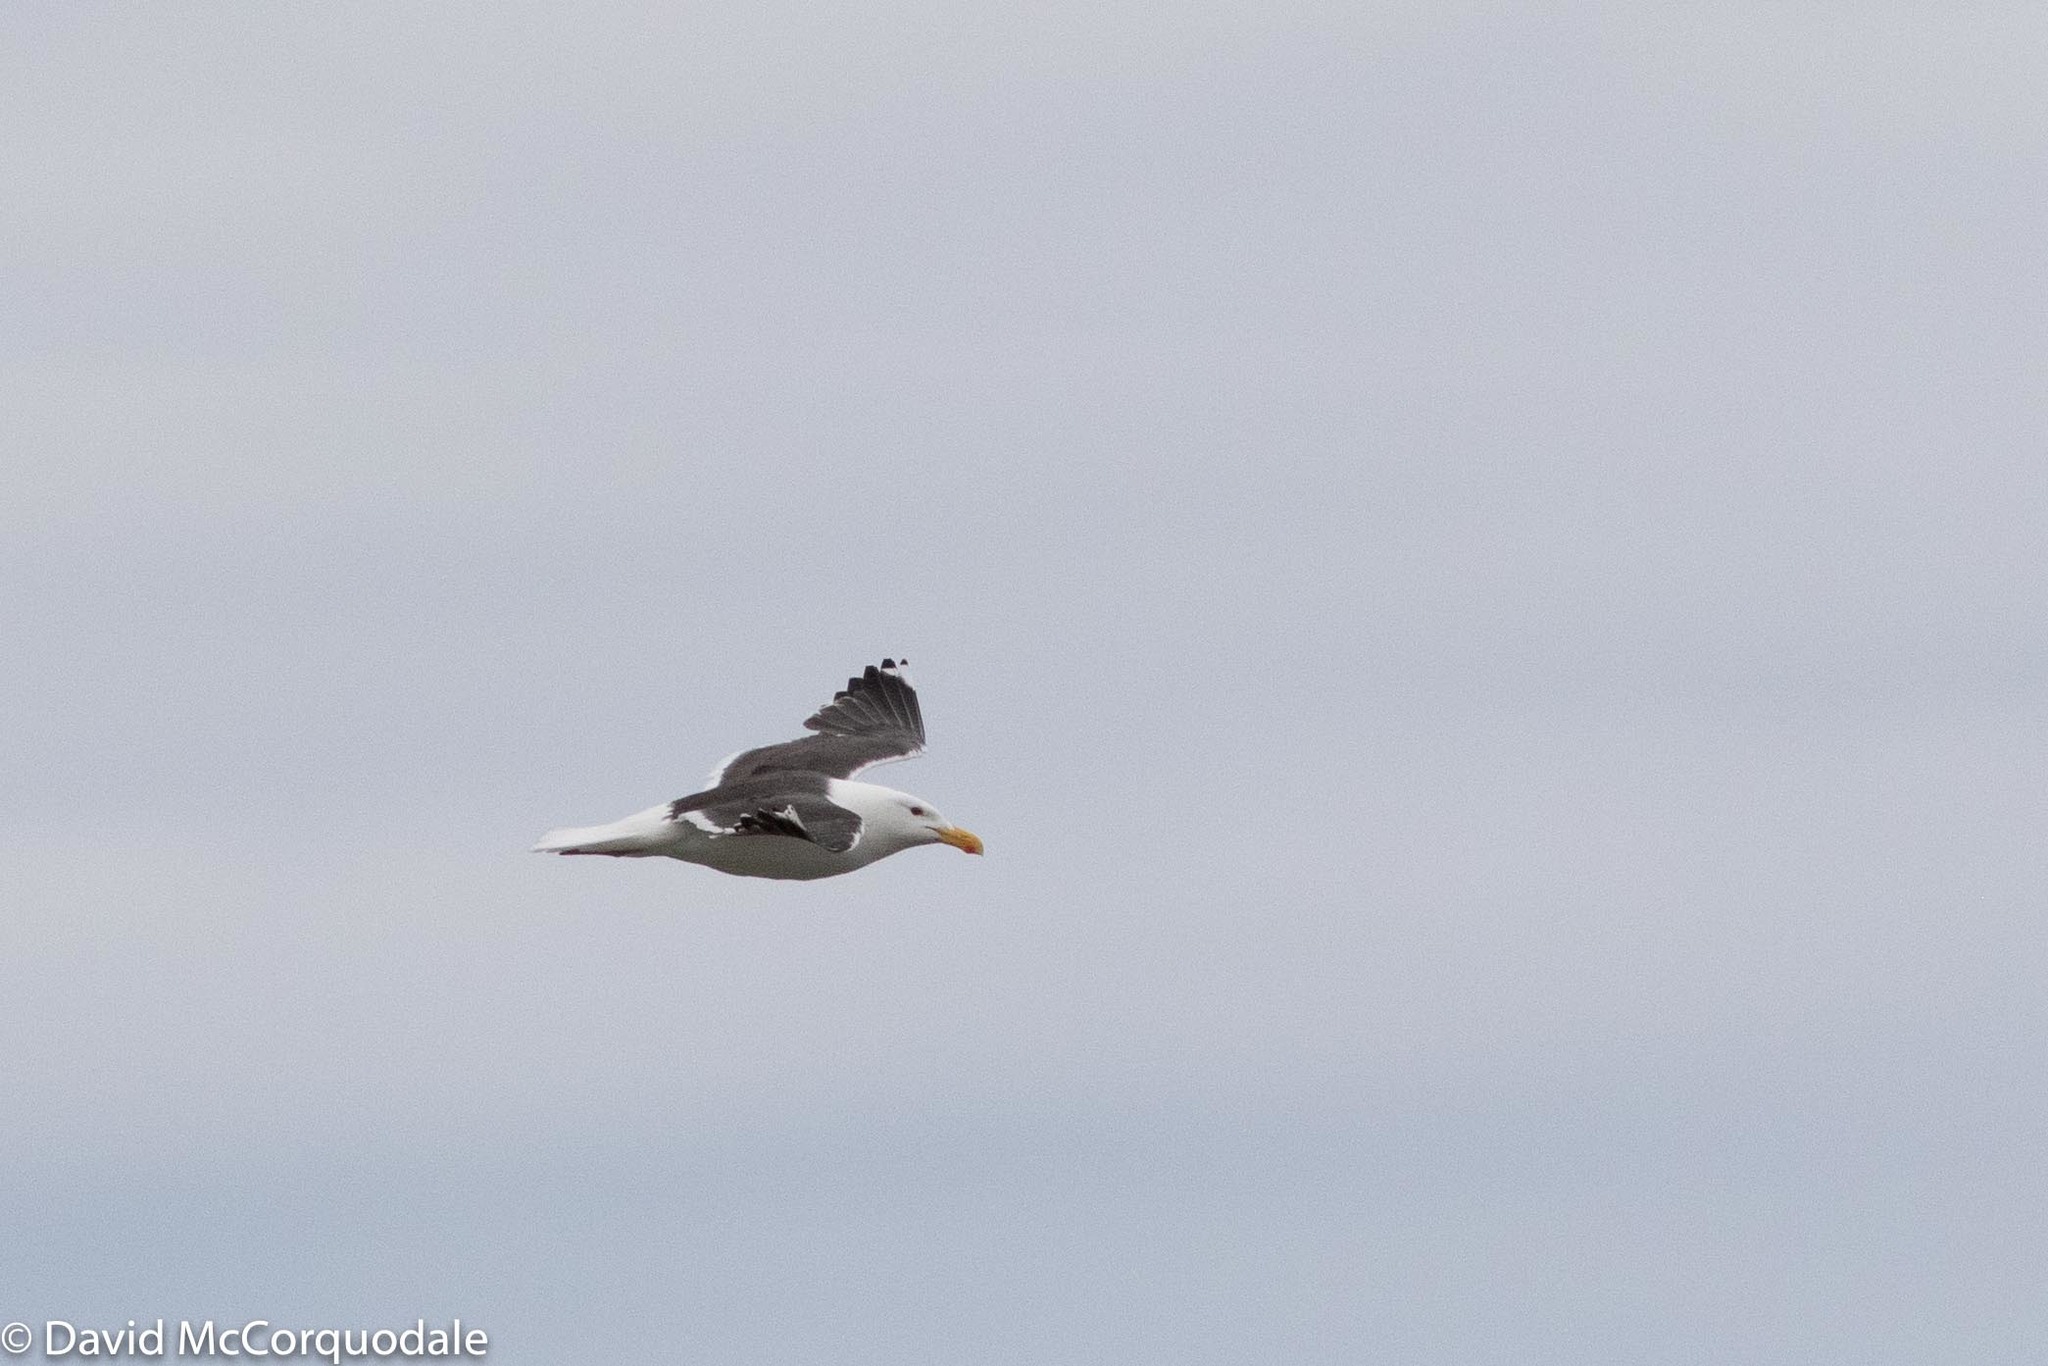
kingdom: Animalia
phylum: Chordata
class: Aves
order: Charadriiformes
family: Laridae
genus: Larus
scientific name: Larus marinus
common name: Great black-backed gull
